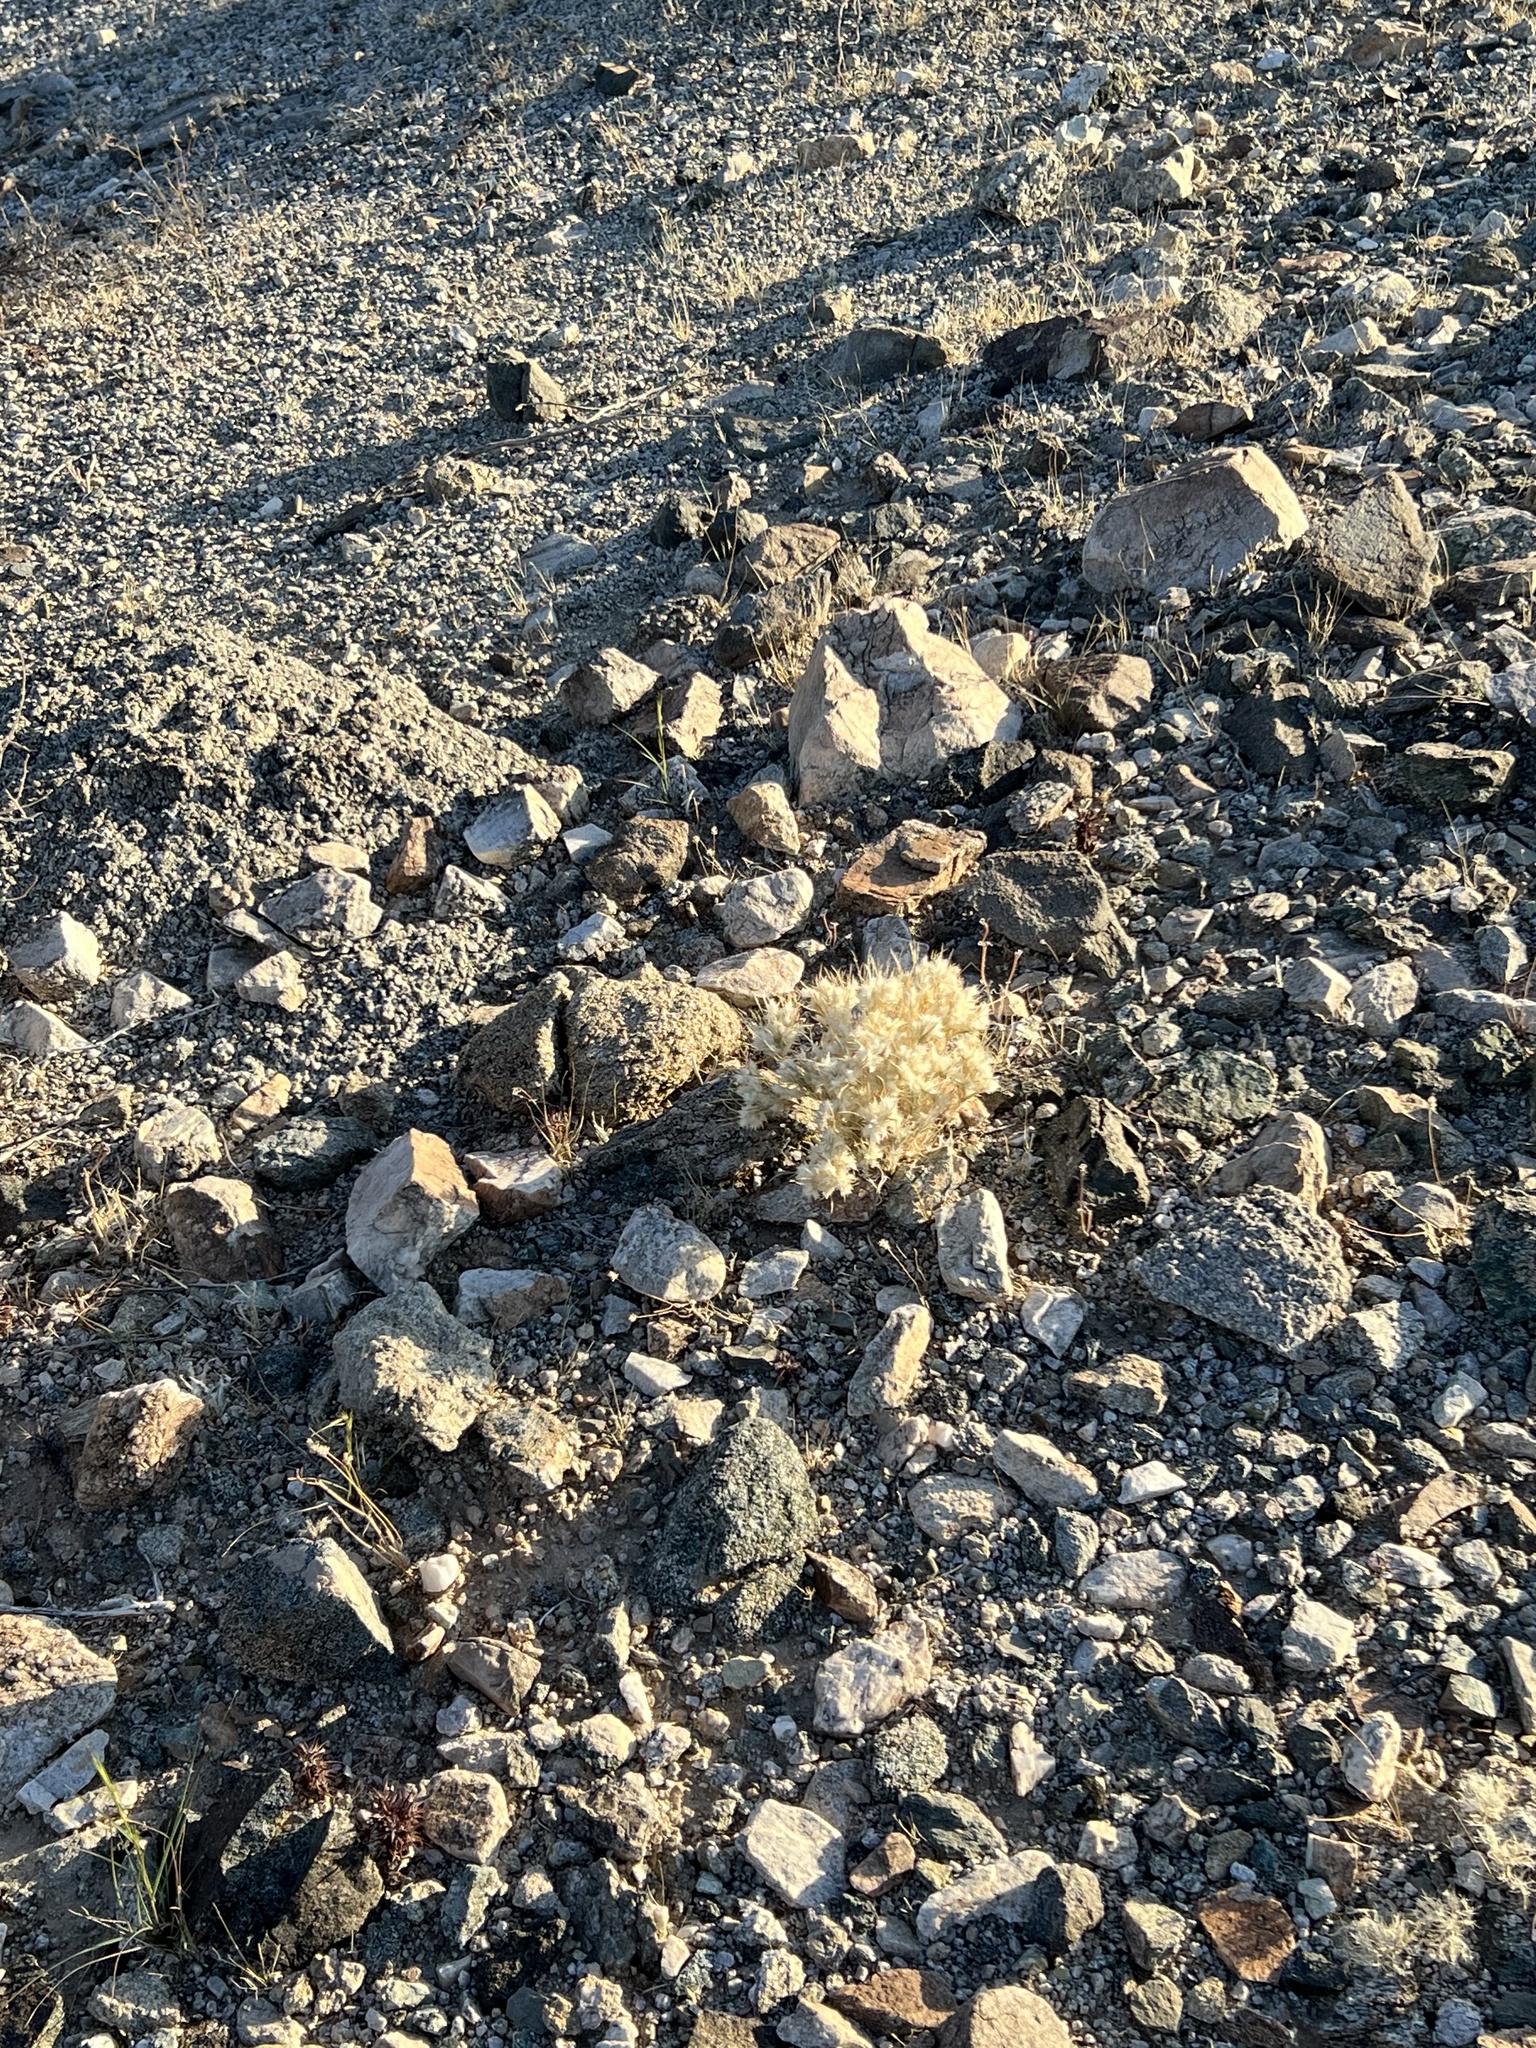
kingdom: Plantae
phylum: Tracheophyta
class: Liliopsida
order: Poales
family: Poaceae
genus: Dasyochloa
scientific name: Dasyochloa pulchella
